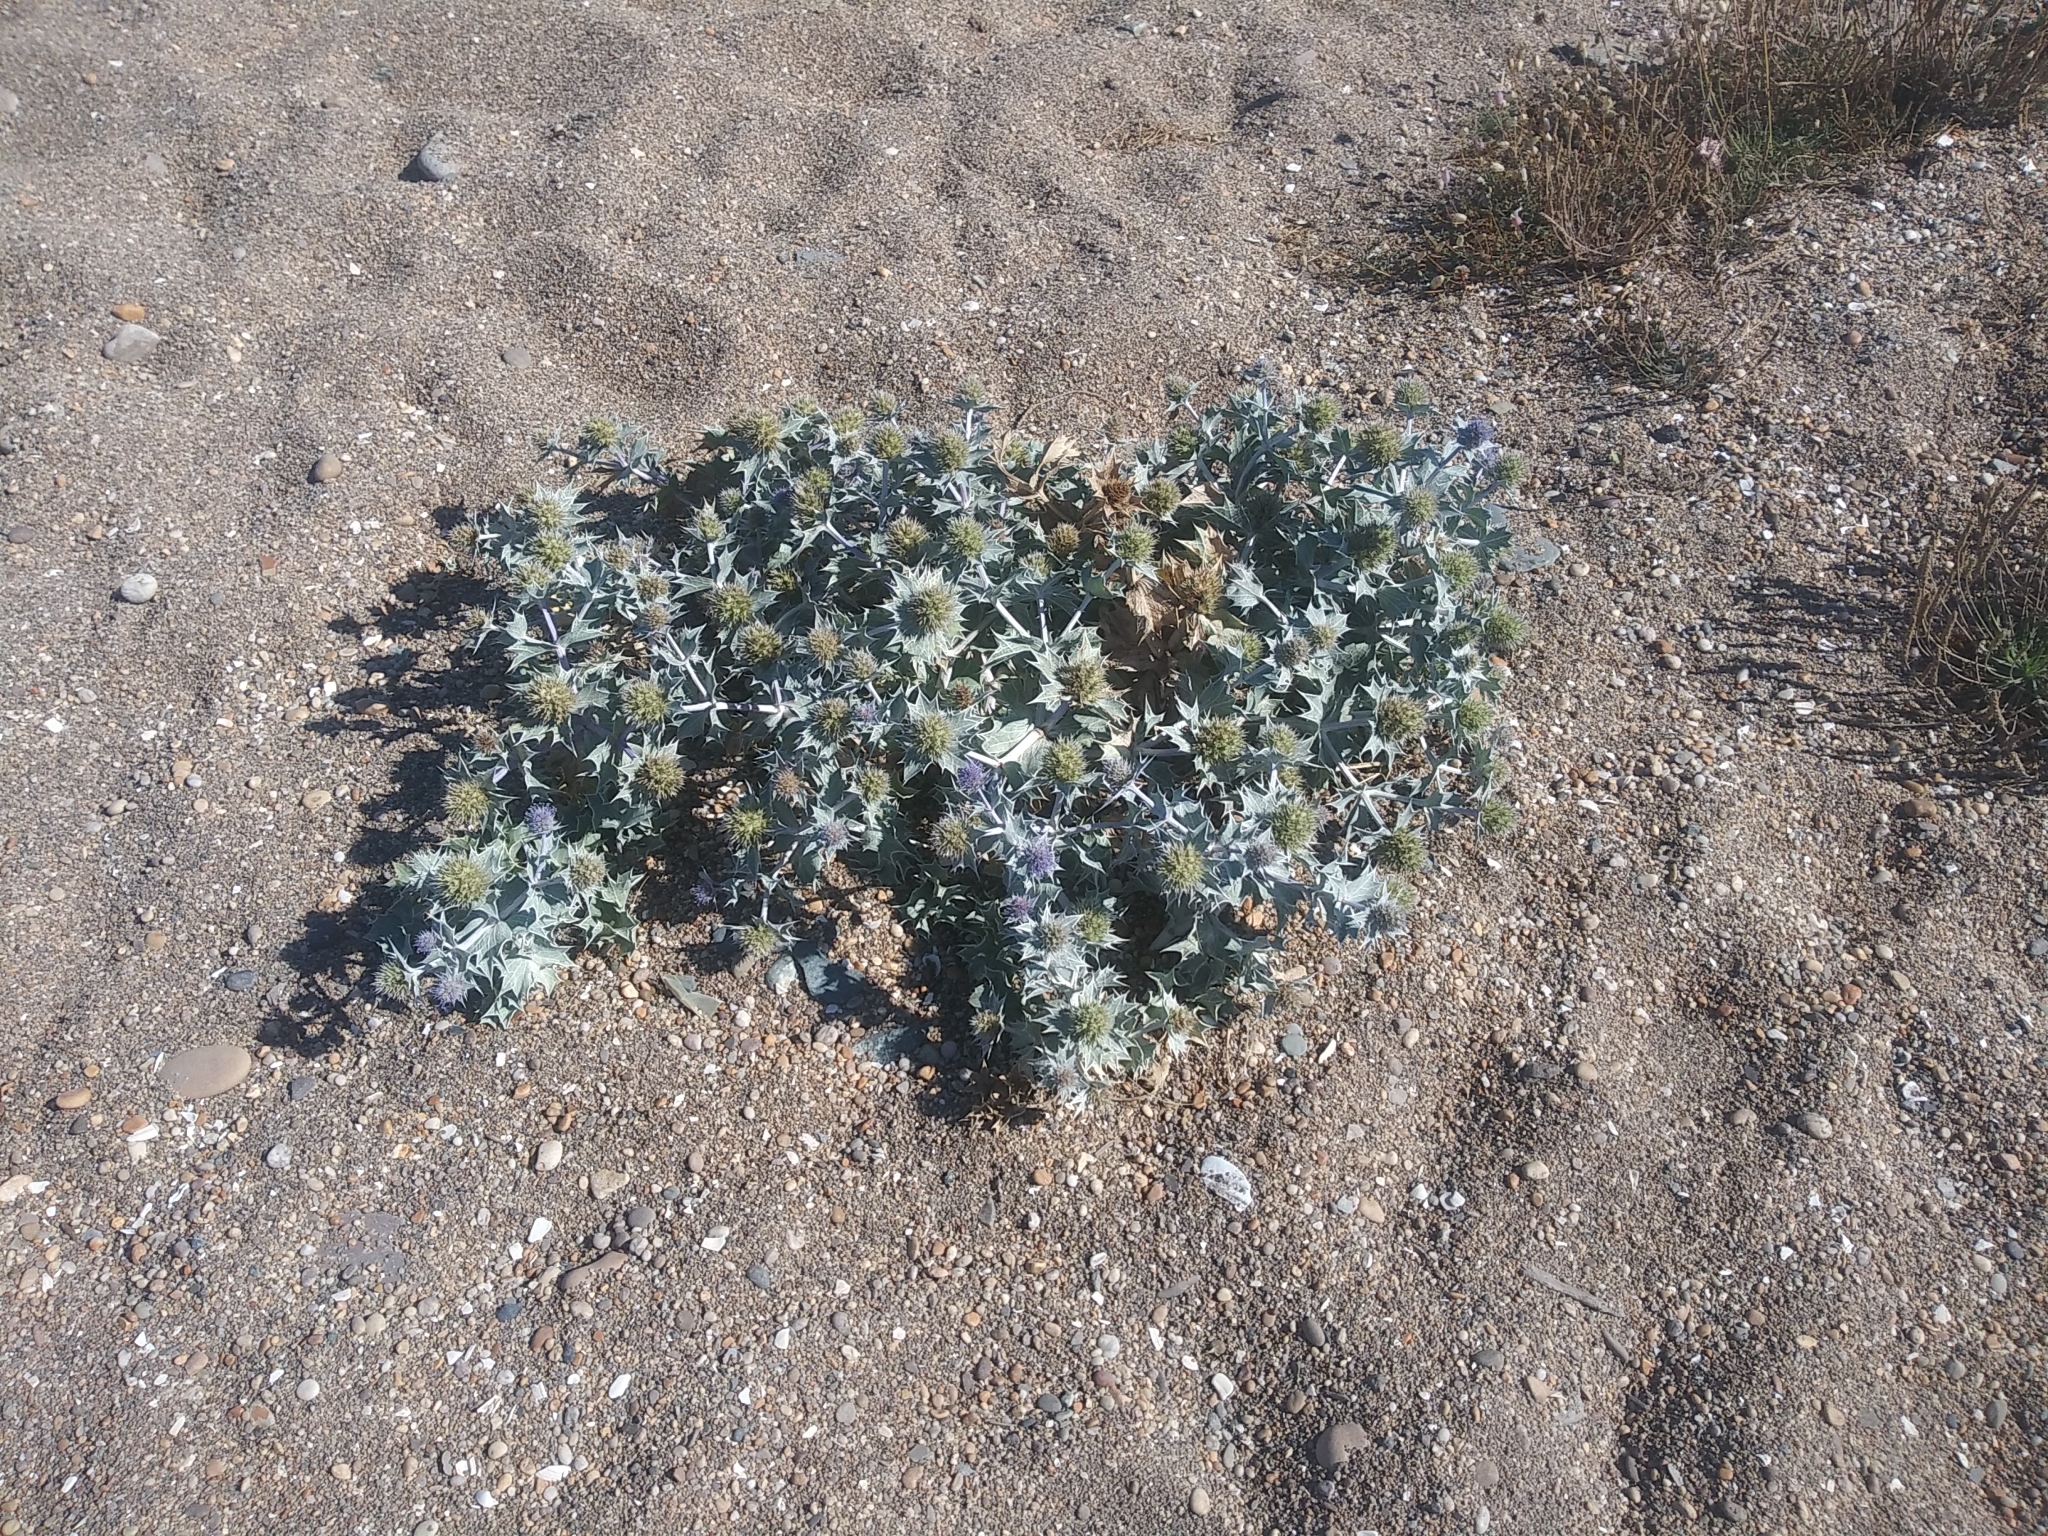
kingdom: Plantae
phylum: Tracheophyta
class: Magnoliopsida
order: Apiales
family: Apiaceae
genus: Eryngium
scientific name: Eryngium maritimum
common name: Sea-holly
